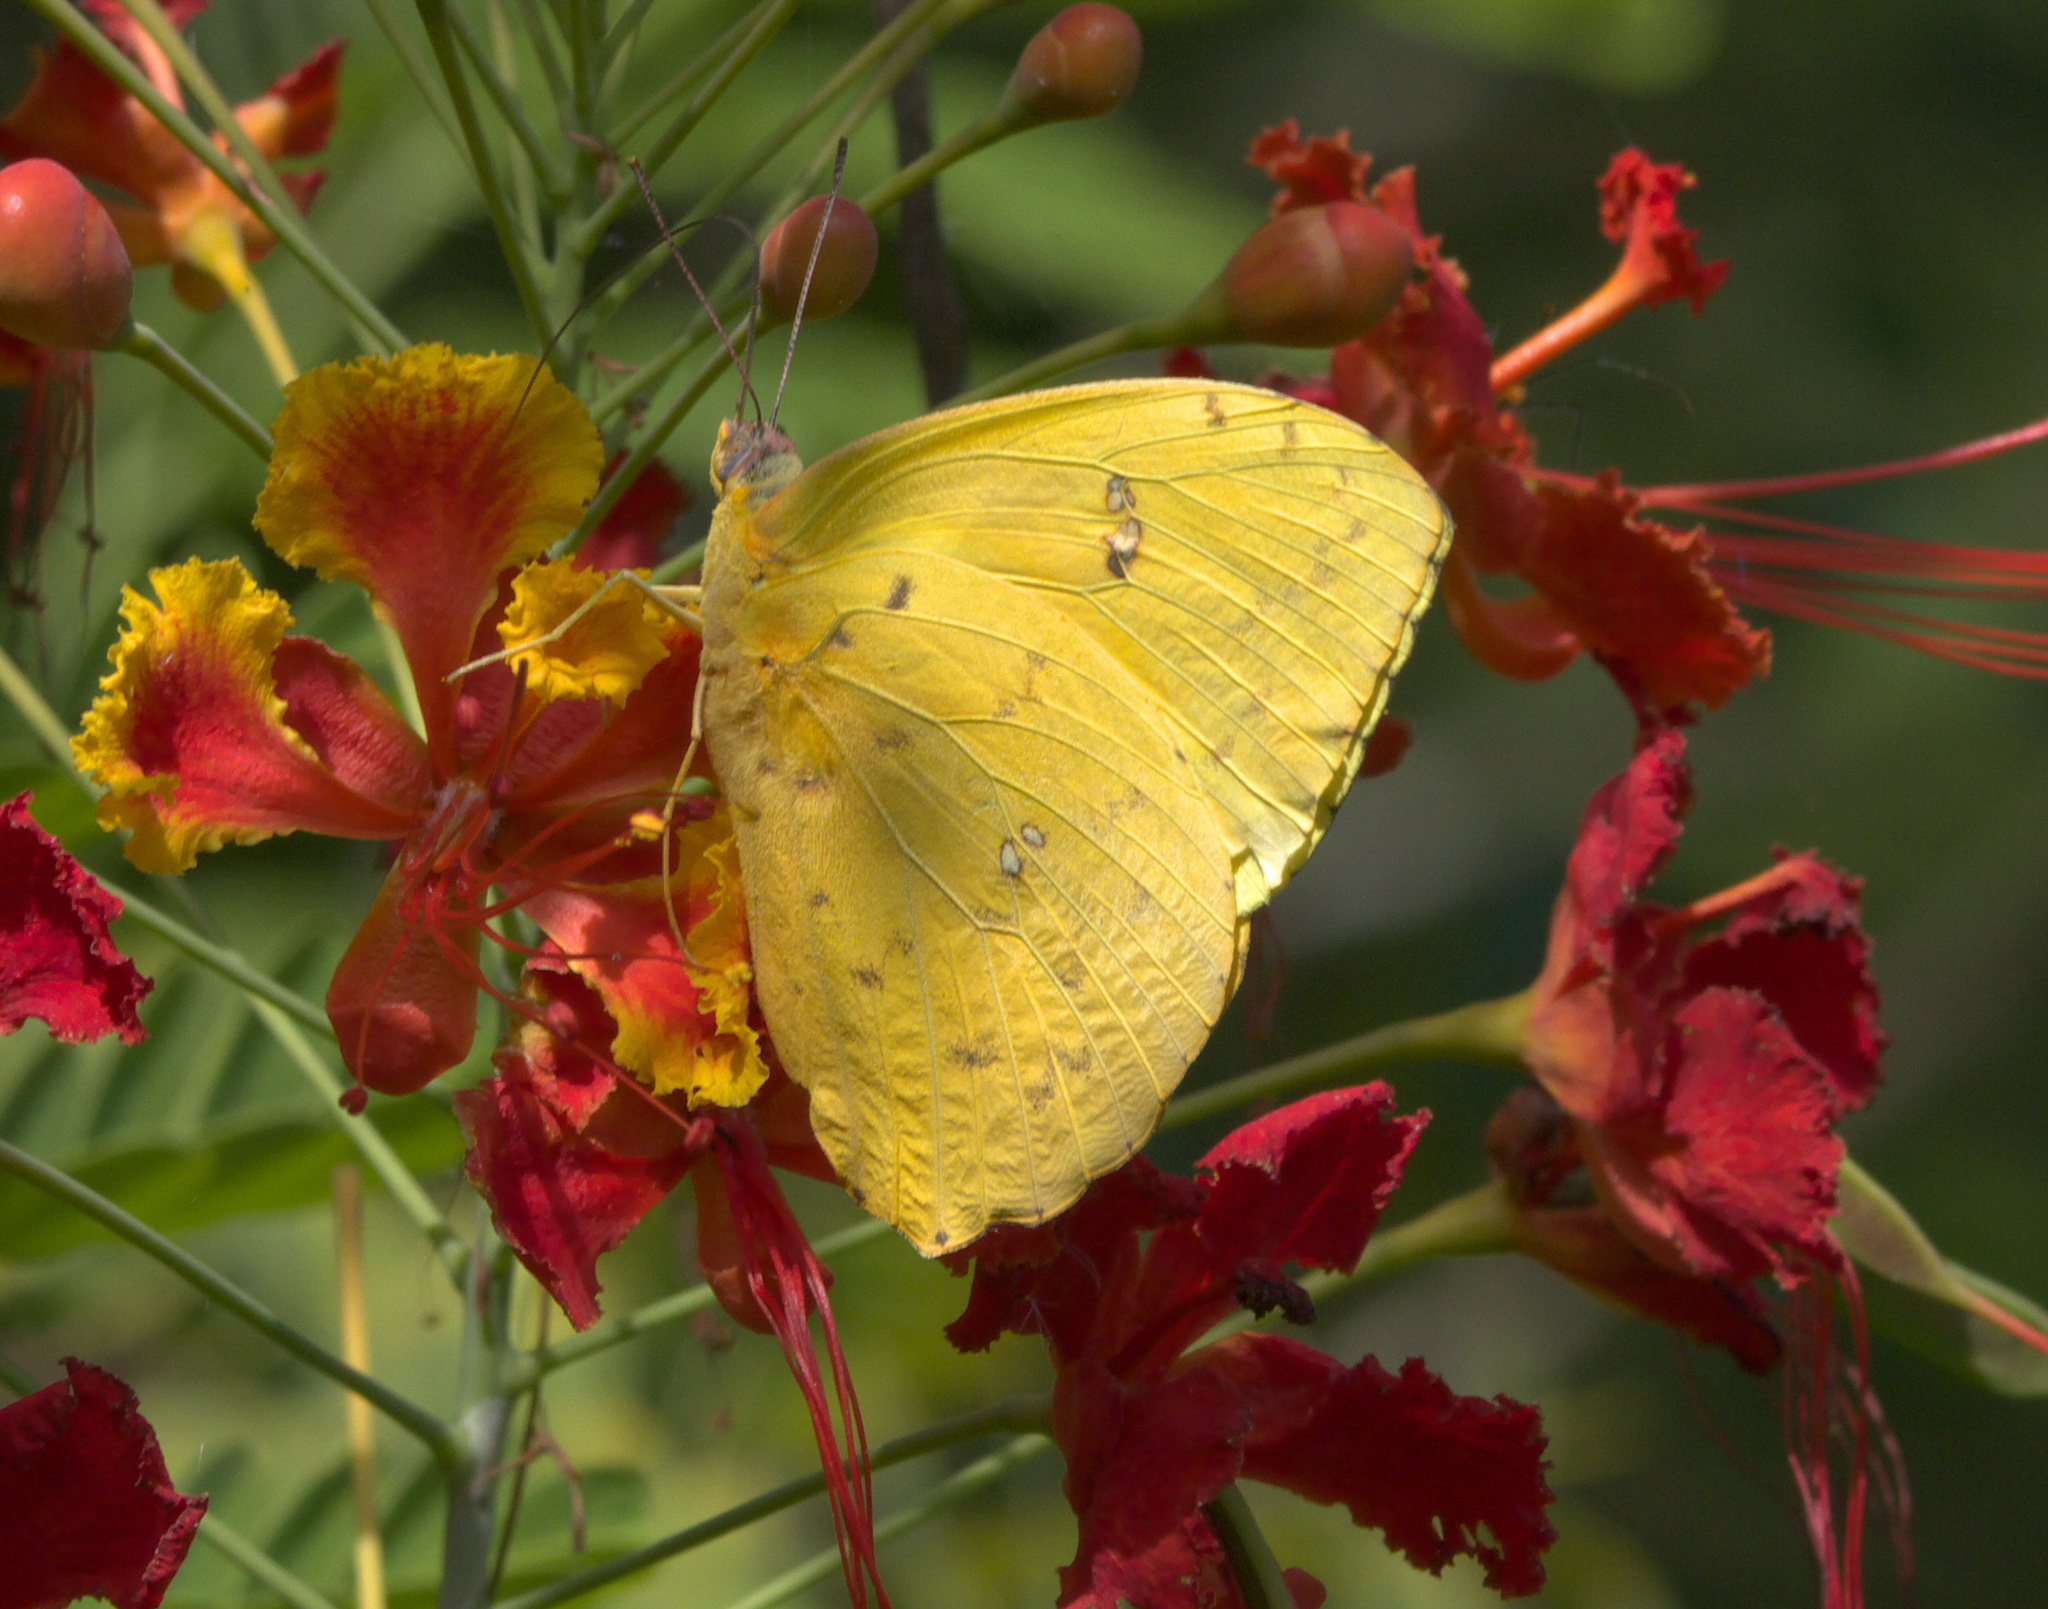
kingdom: Animalia
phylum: Arthropoda
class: Insecta
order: Lepidoptera
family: Pieridae
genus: Phoebis
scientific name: Phoebis sennae
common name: Cloudless sulphur
